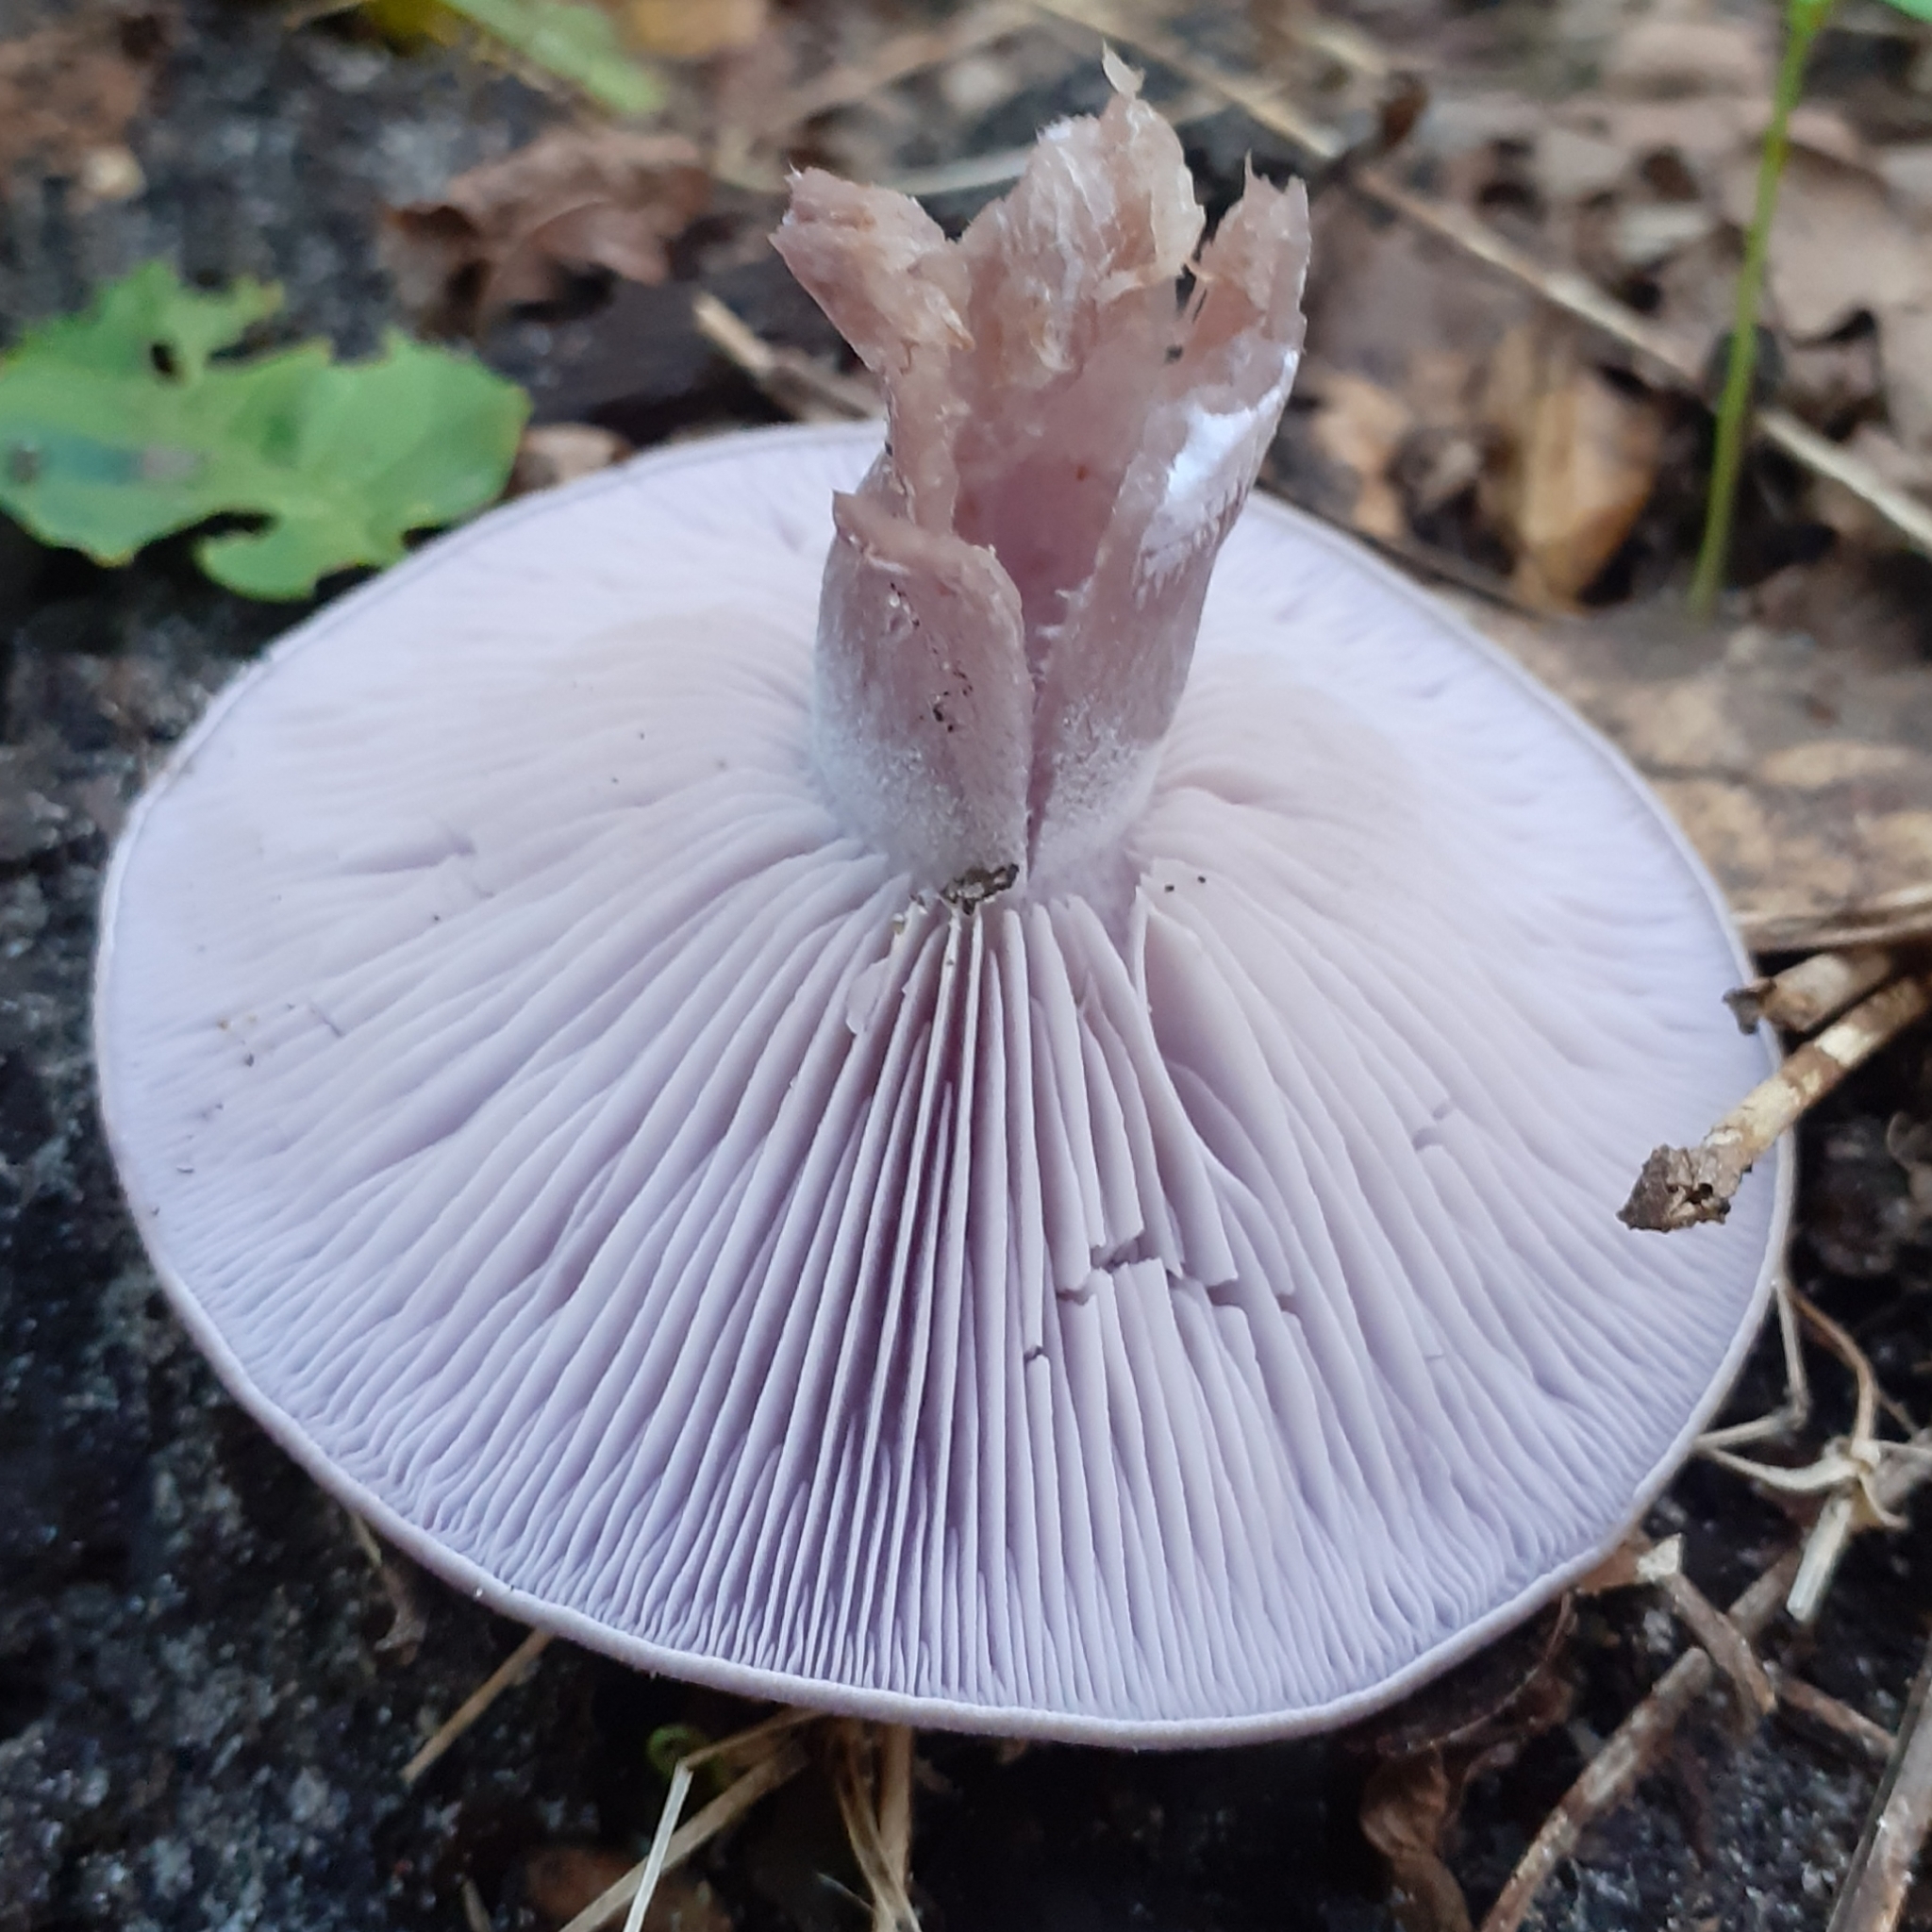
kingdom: Fungi
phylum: Basidiomycota
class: Agaricomycetes
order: Agaricales
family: Tricholomataceae
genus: Collybia
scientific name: Collybia
